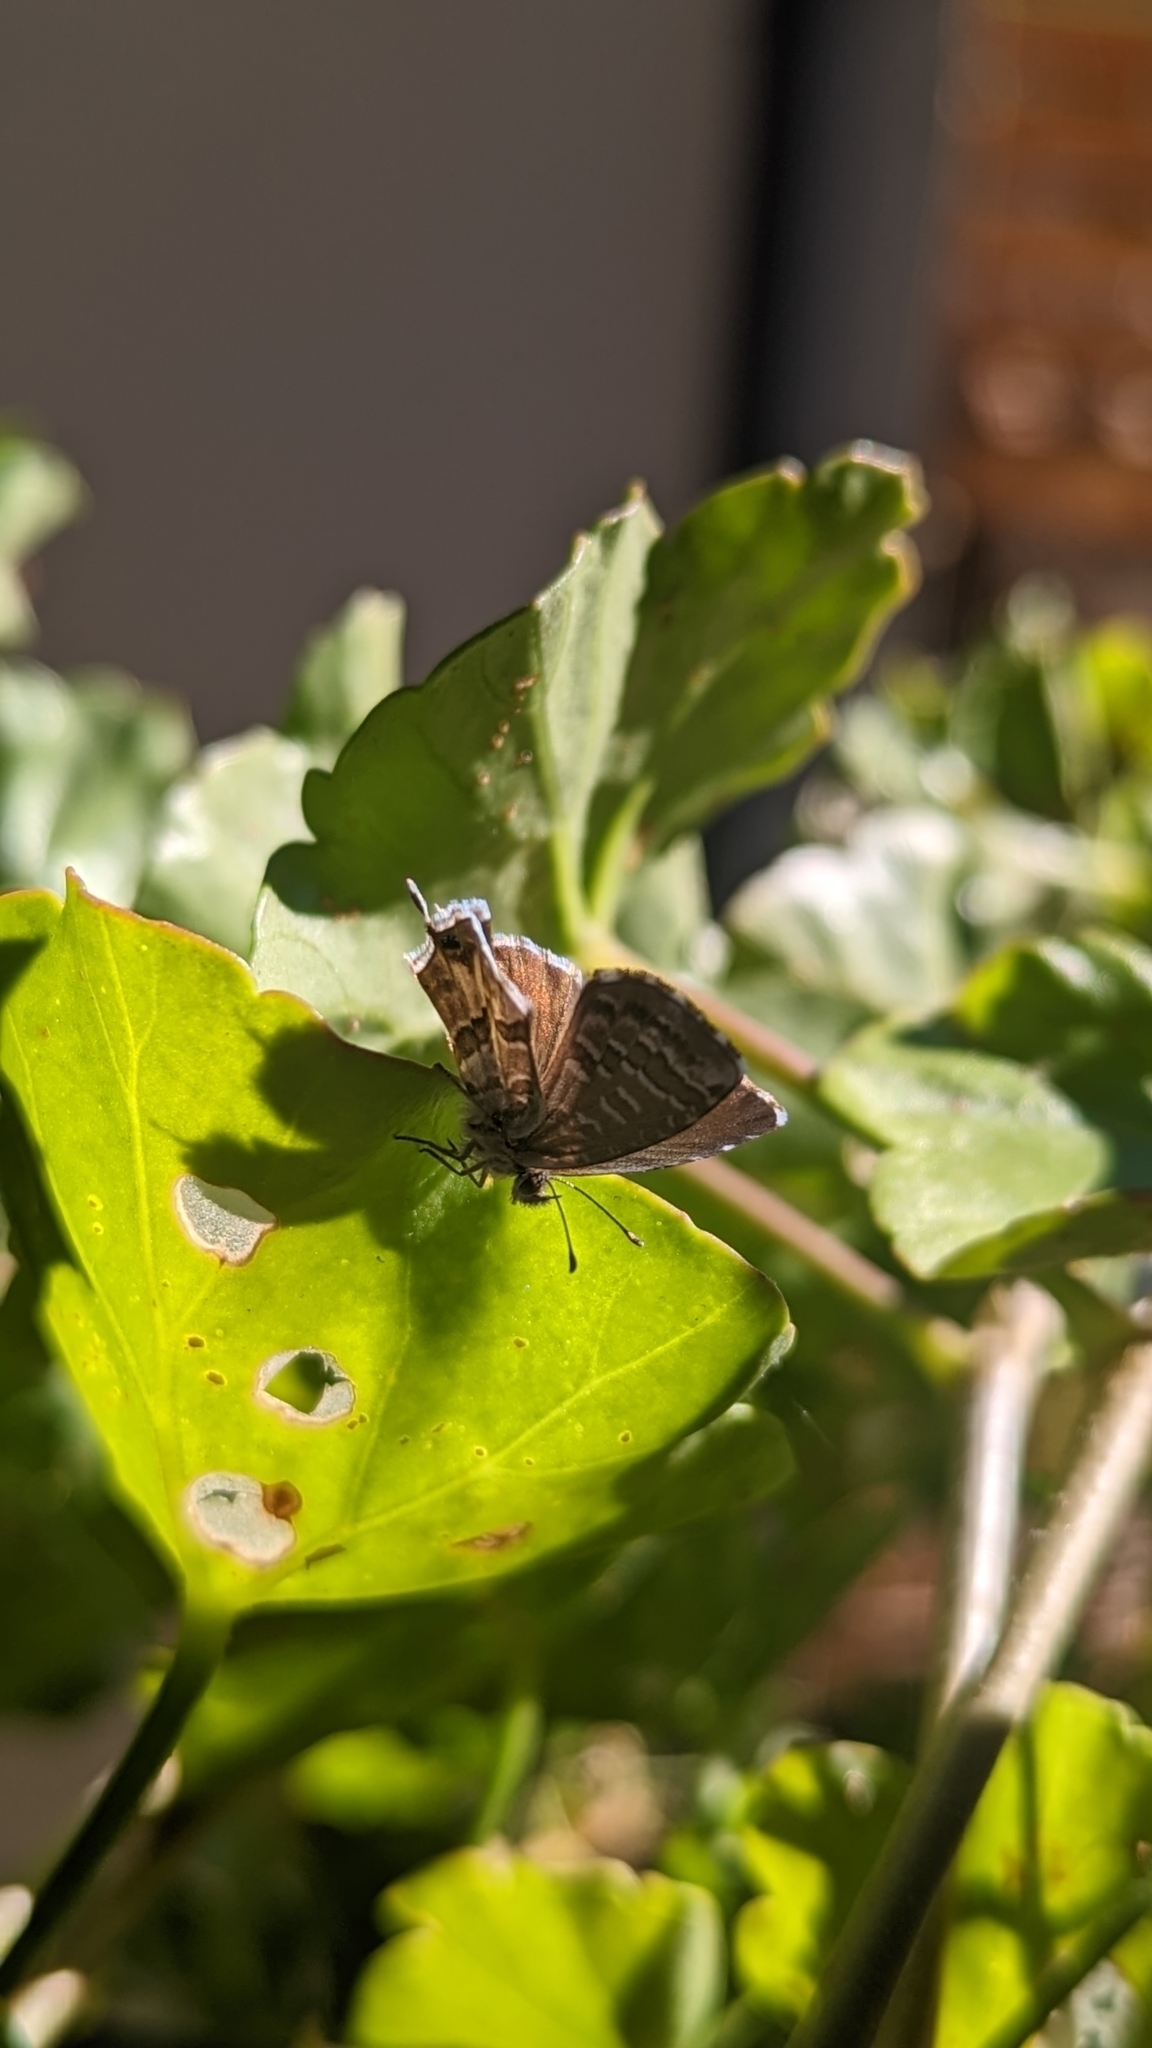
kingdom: Animalia
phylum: Arthropoda
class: Insecta
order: Lepidoptera
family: Lycaenidae
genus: Cacyreus
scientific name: Cacyreus marshalli
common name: Geranium bronze
